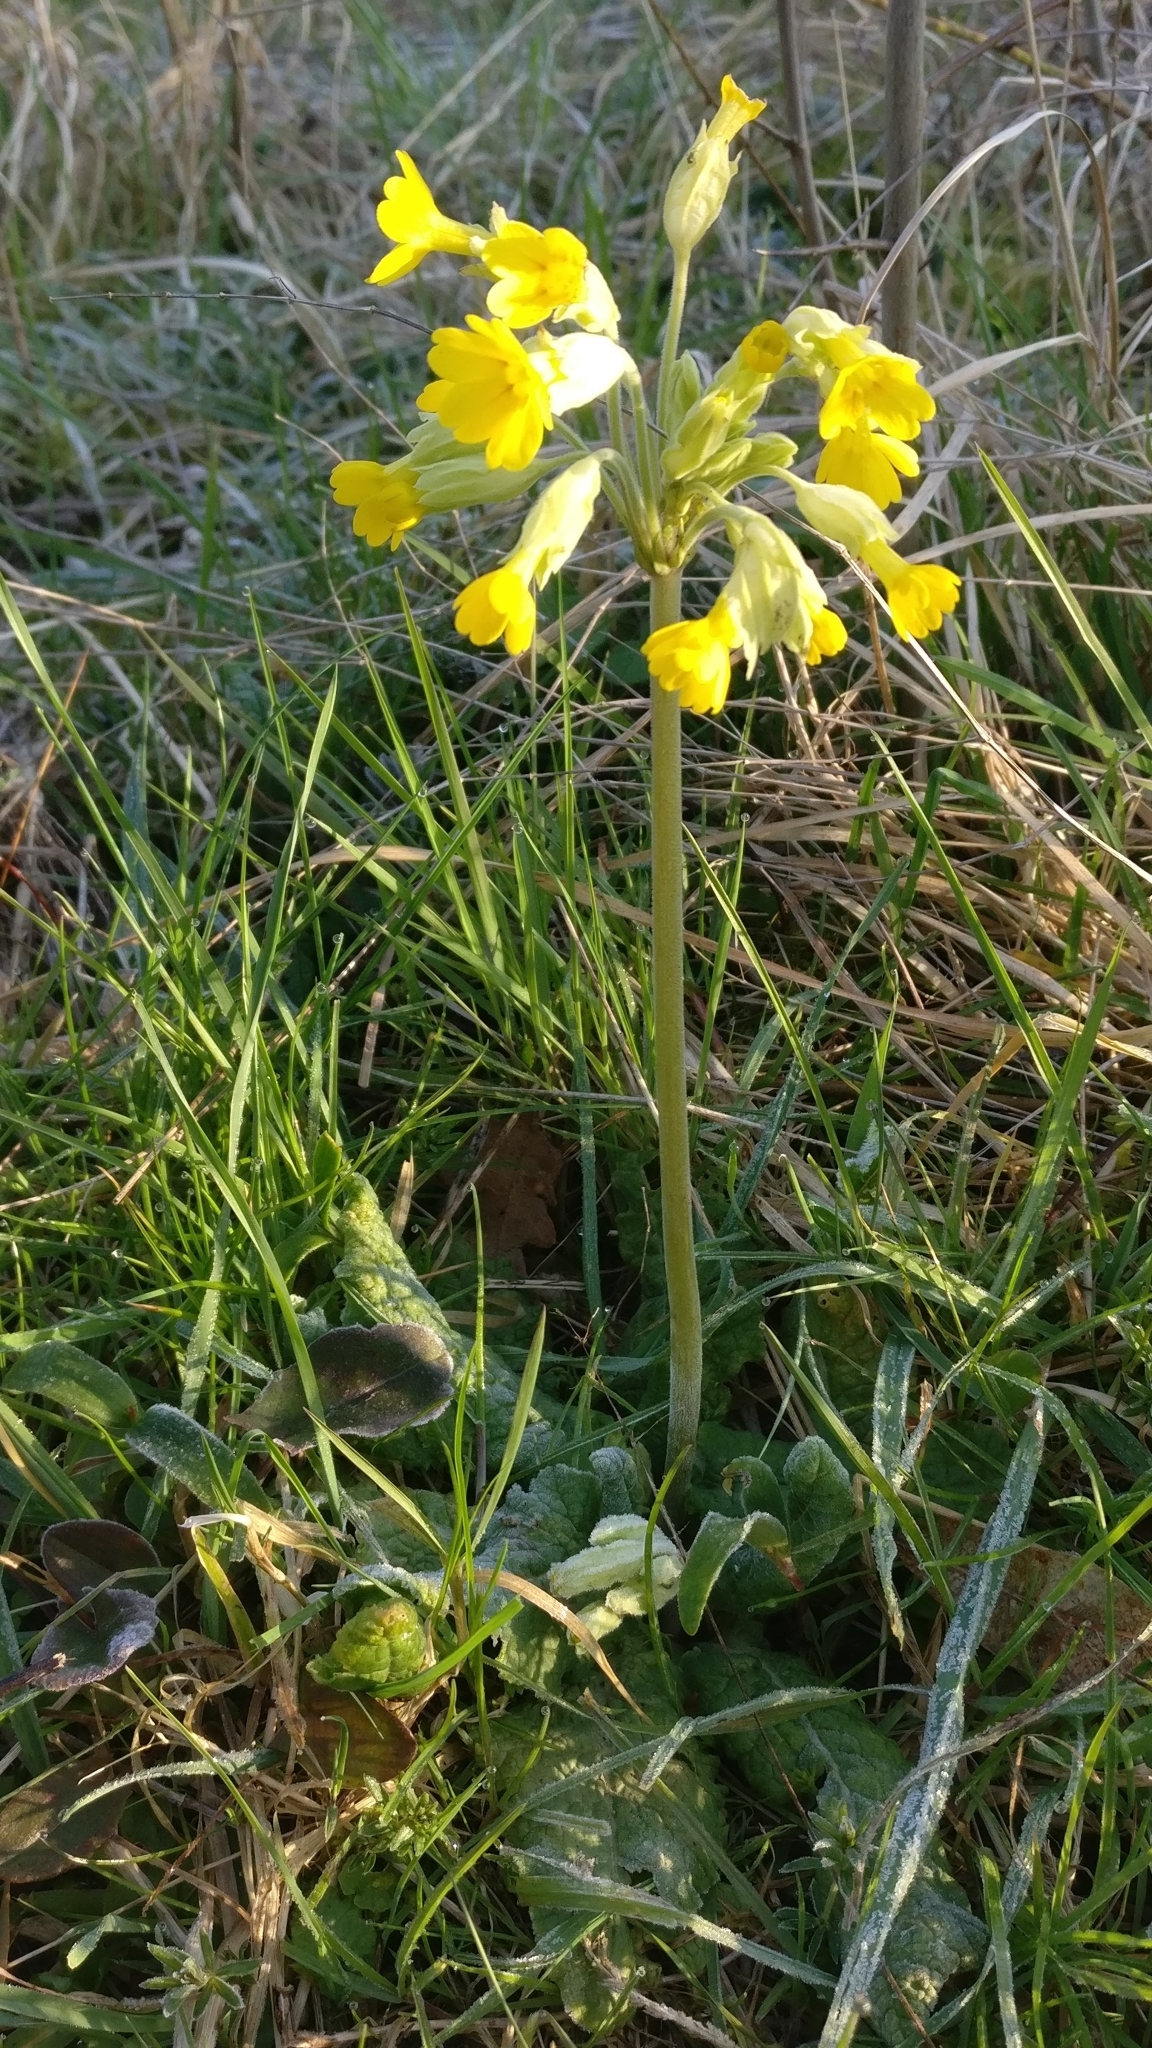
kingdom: Plantae
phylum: Tracheophyta
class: Magnoliopsida
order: Ericales
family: Primulaceae
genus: Primula
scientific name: Primula veris
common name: Cowslip
